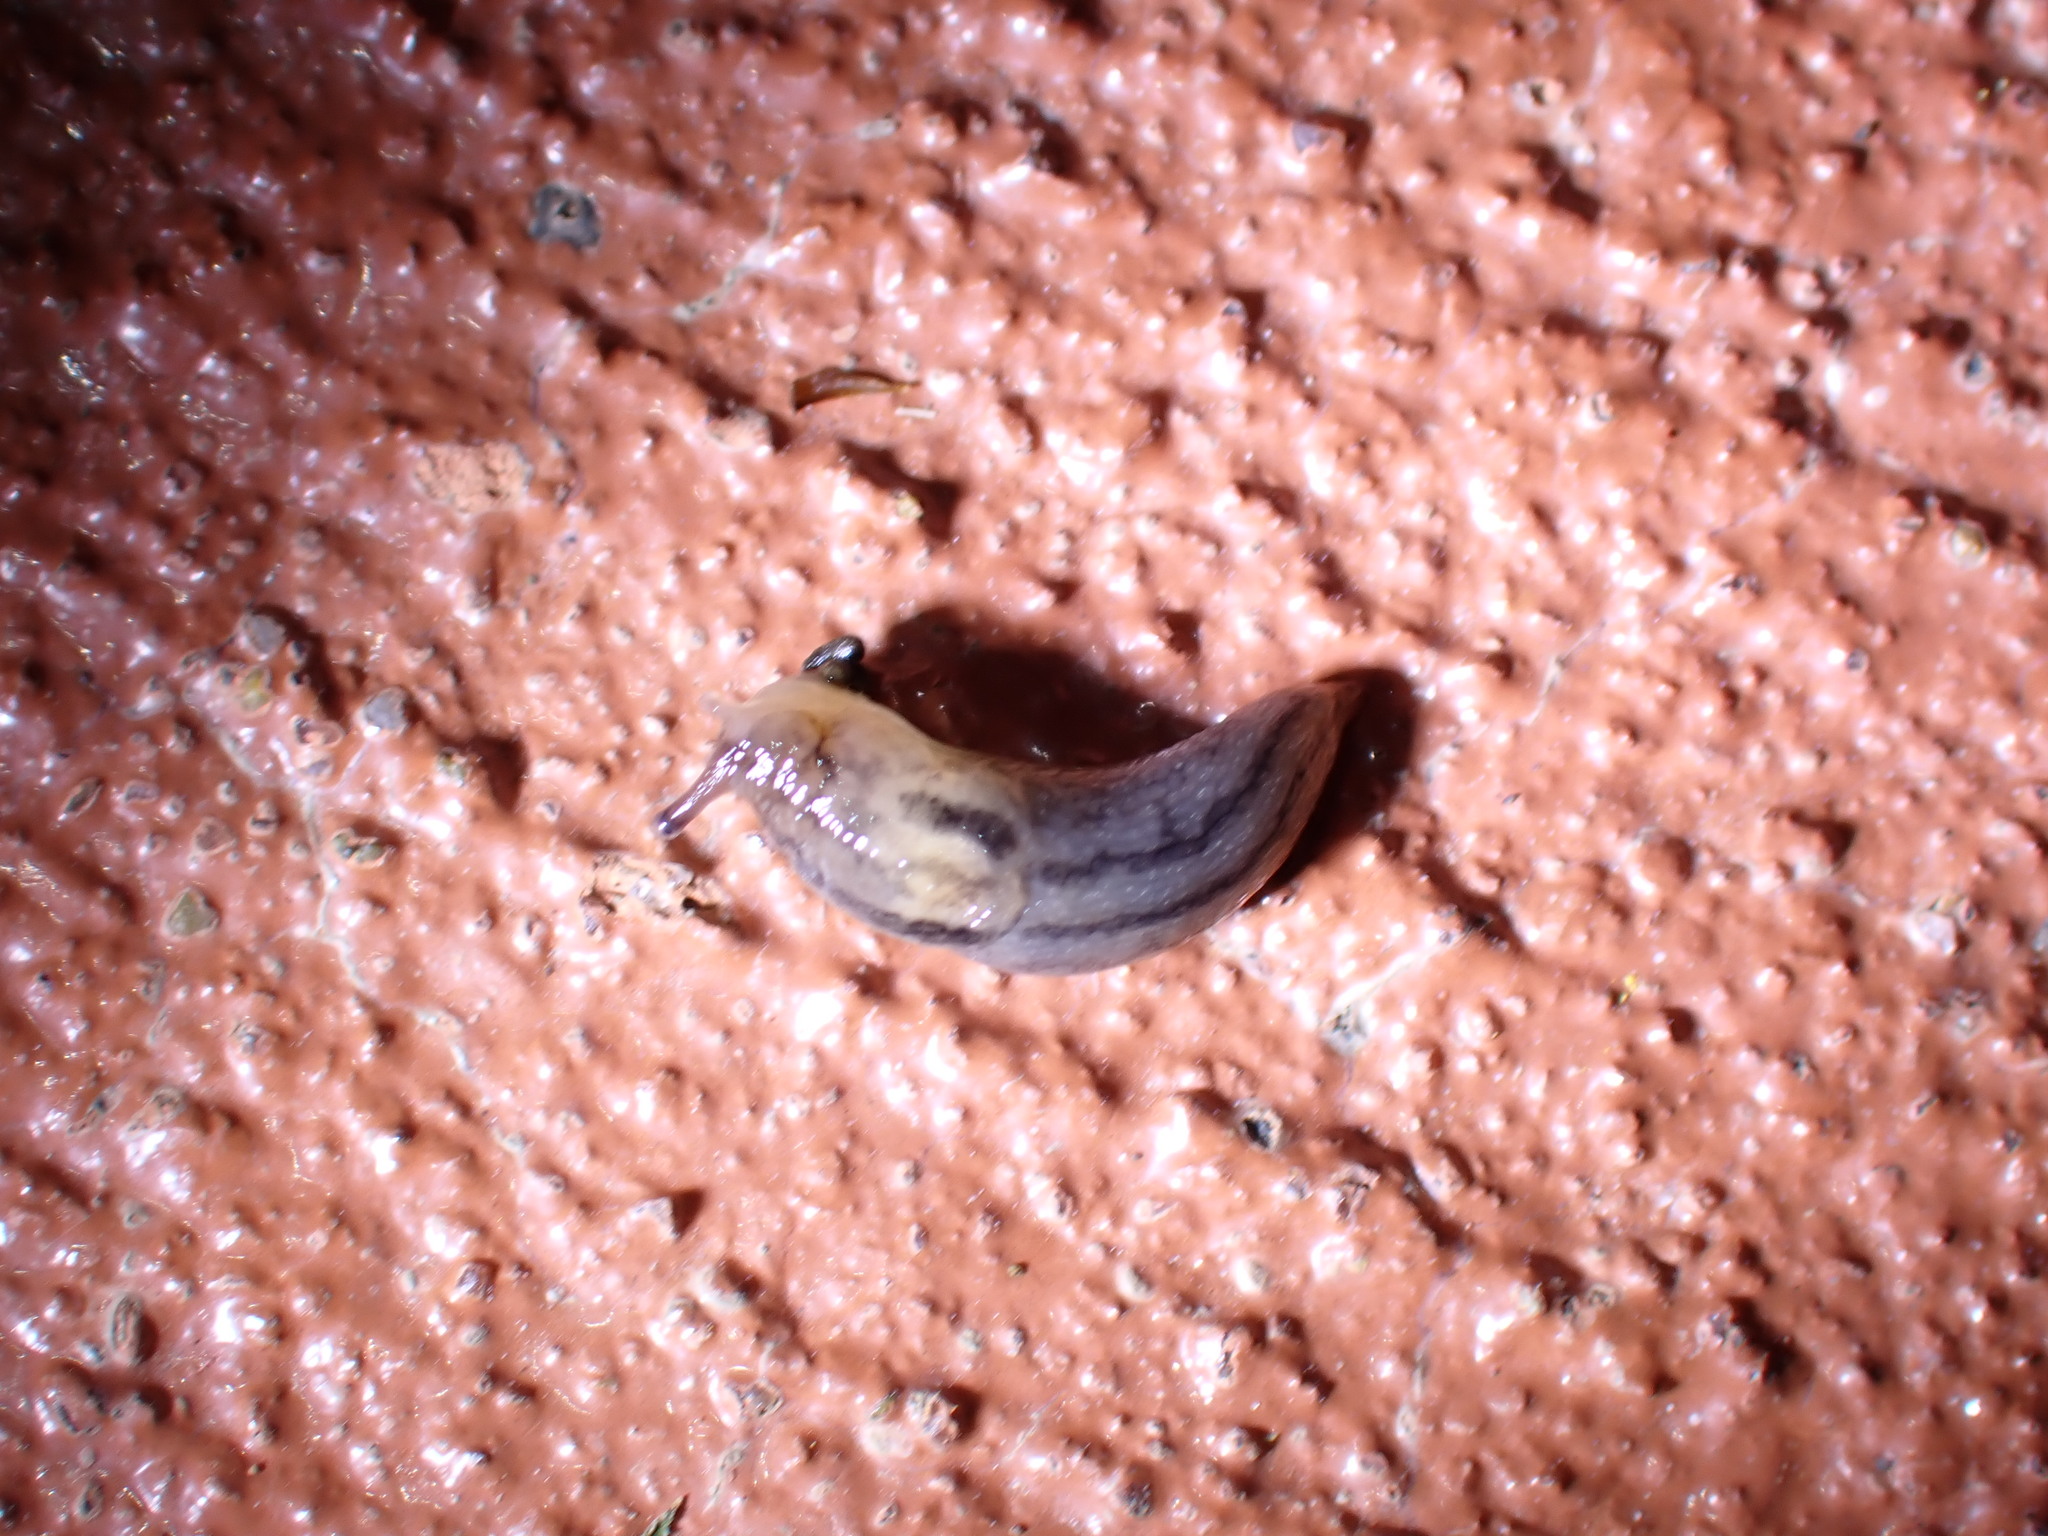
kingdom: Animalia
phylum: Mollusca
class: Gastropoda
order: Stylommatophora
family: Limacidae
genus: Ambigolimax
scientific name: Ambigolimax
